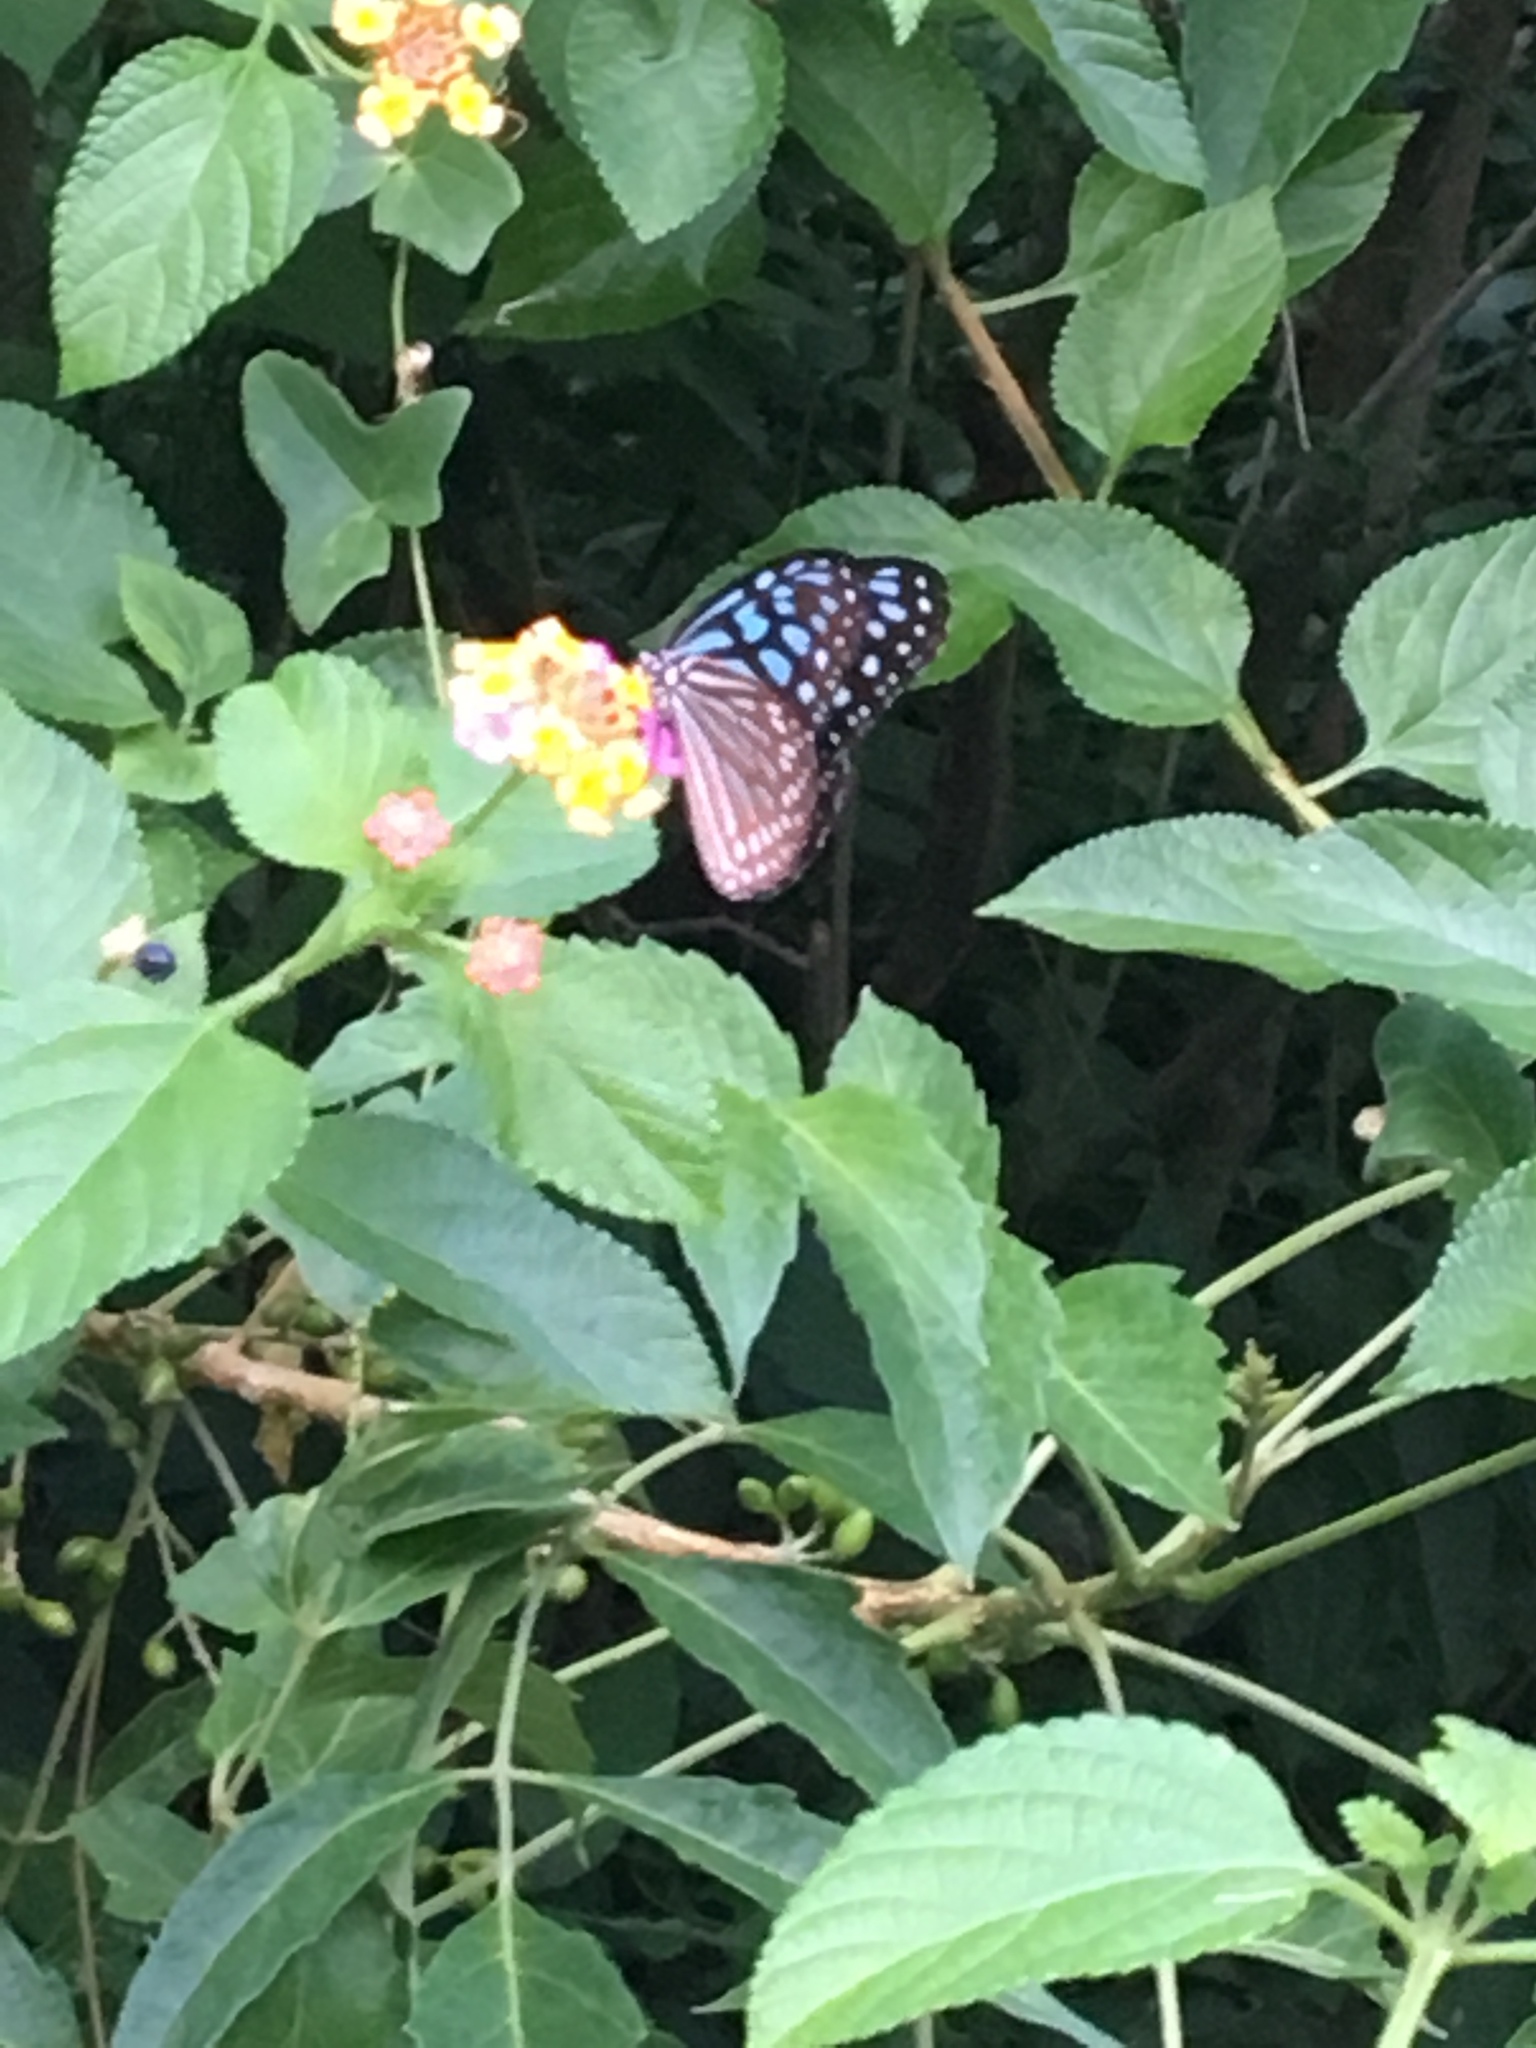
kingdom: Animalia
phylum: Arthropoda
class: Insecta
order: Lepidoptera
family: Nymphalidae
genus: Ideopsis
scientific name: Ideopsis similis
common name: Ceylon blue glassy tiger
